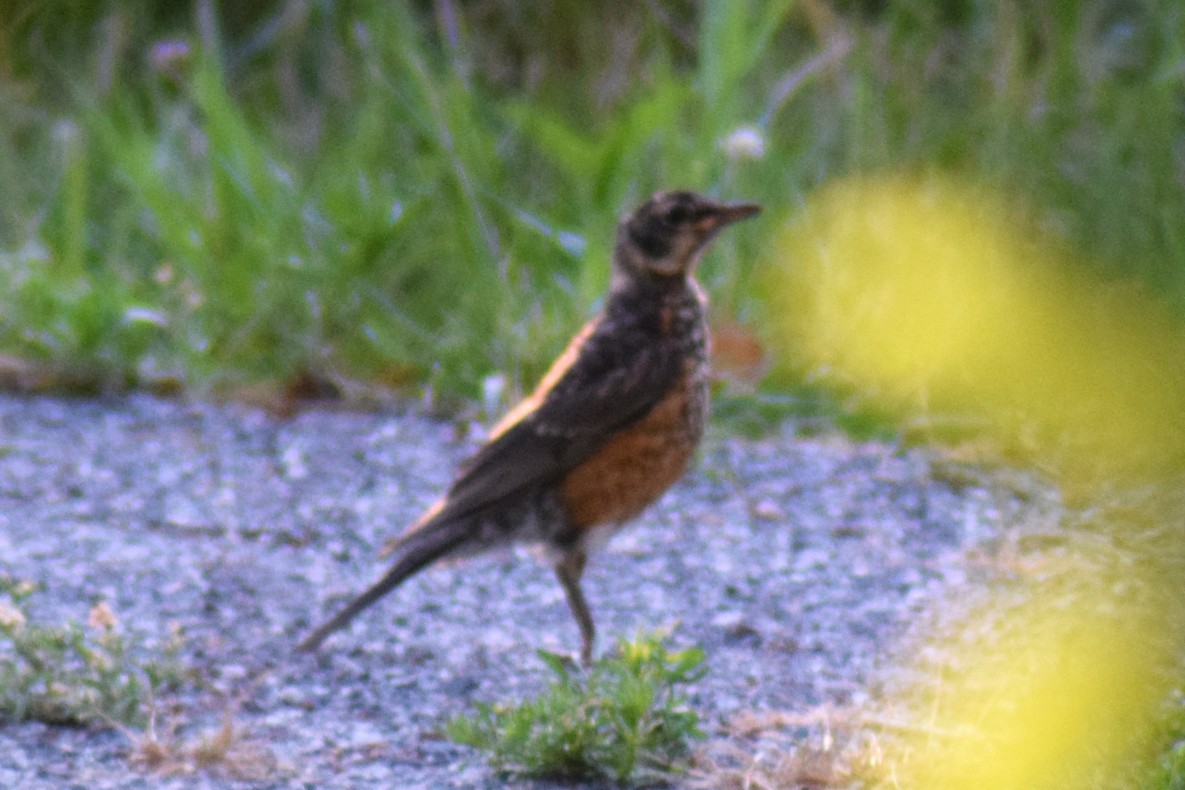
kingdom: Animalia
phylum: Chordata
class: Aves
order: Passeriformes
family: Turdidae
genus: Turdus
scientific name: Turdus migratorius
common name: American robin
